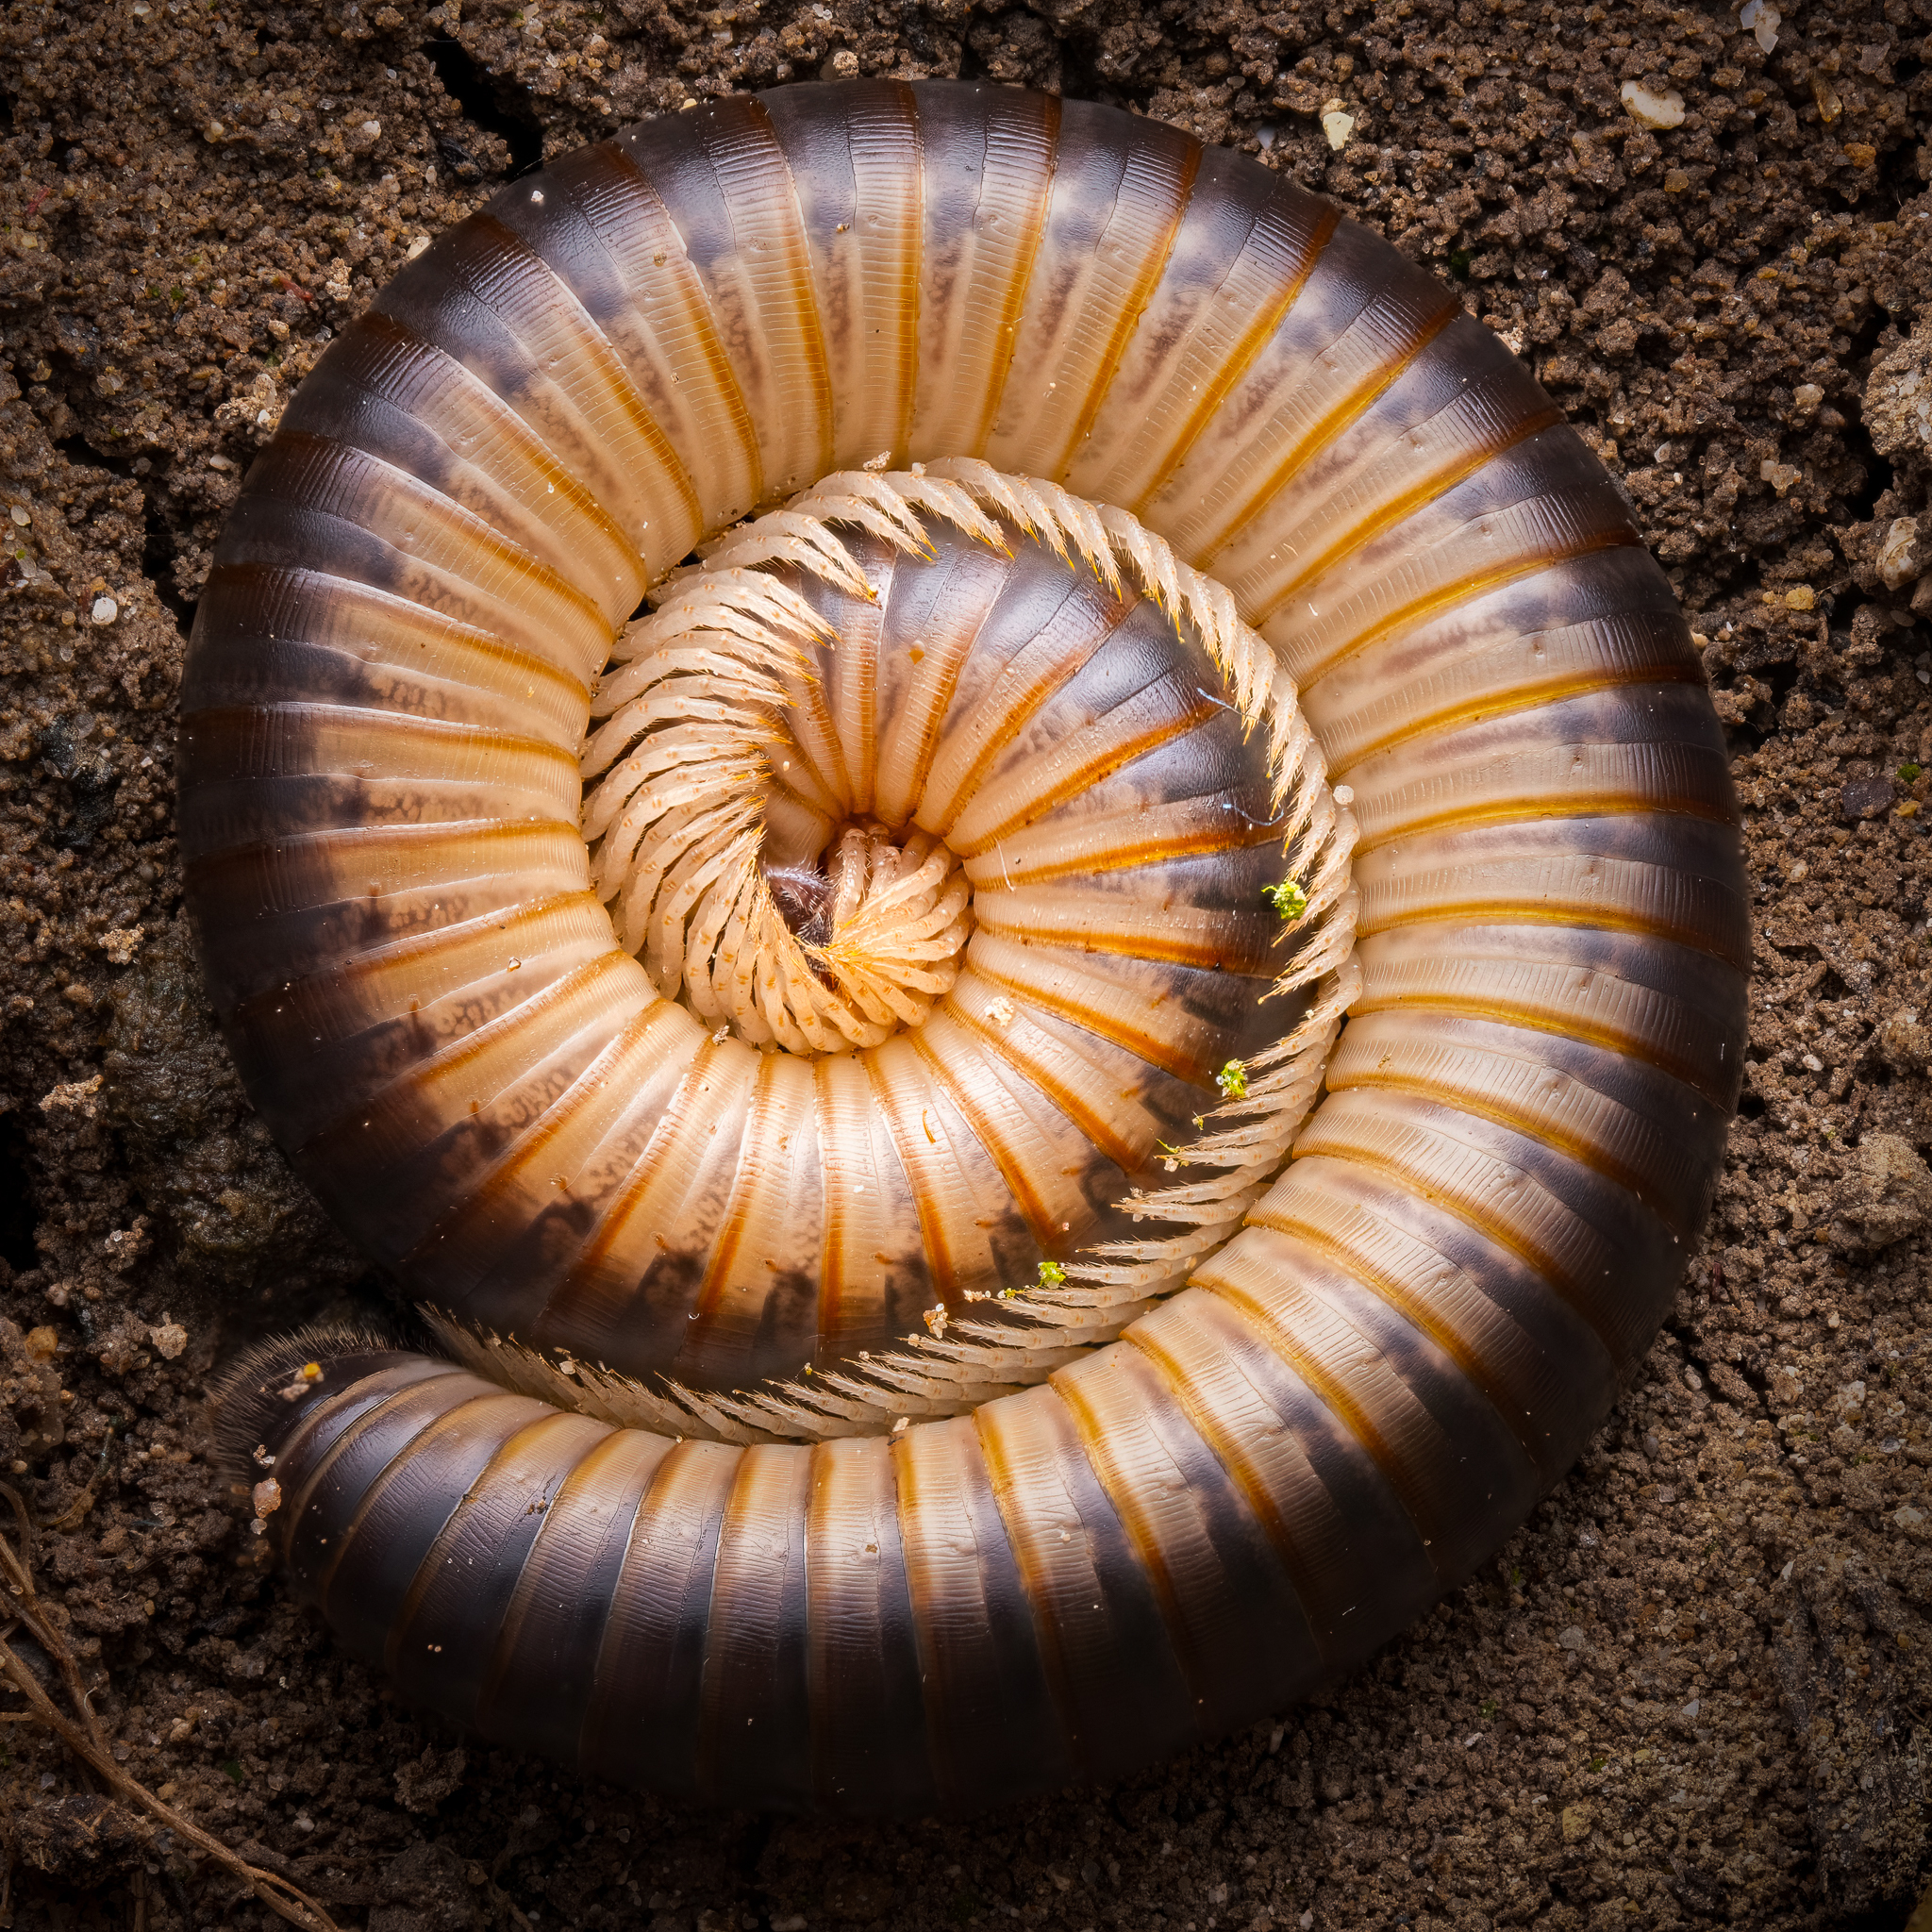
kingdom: Animalia
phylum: Arthropoda
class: Diplopoda
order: Julida
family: Julidae
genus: Pachyiulus
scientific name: Pachyiulus flavipes
